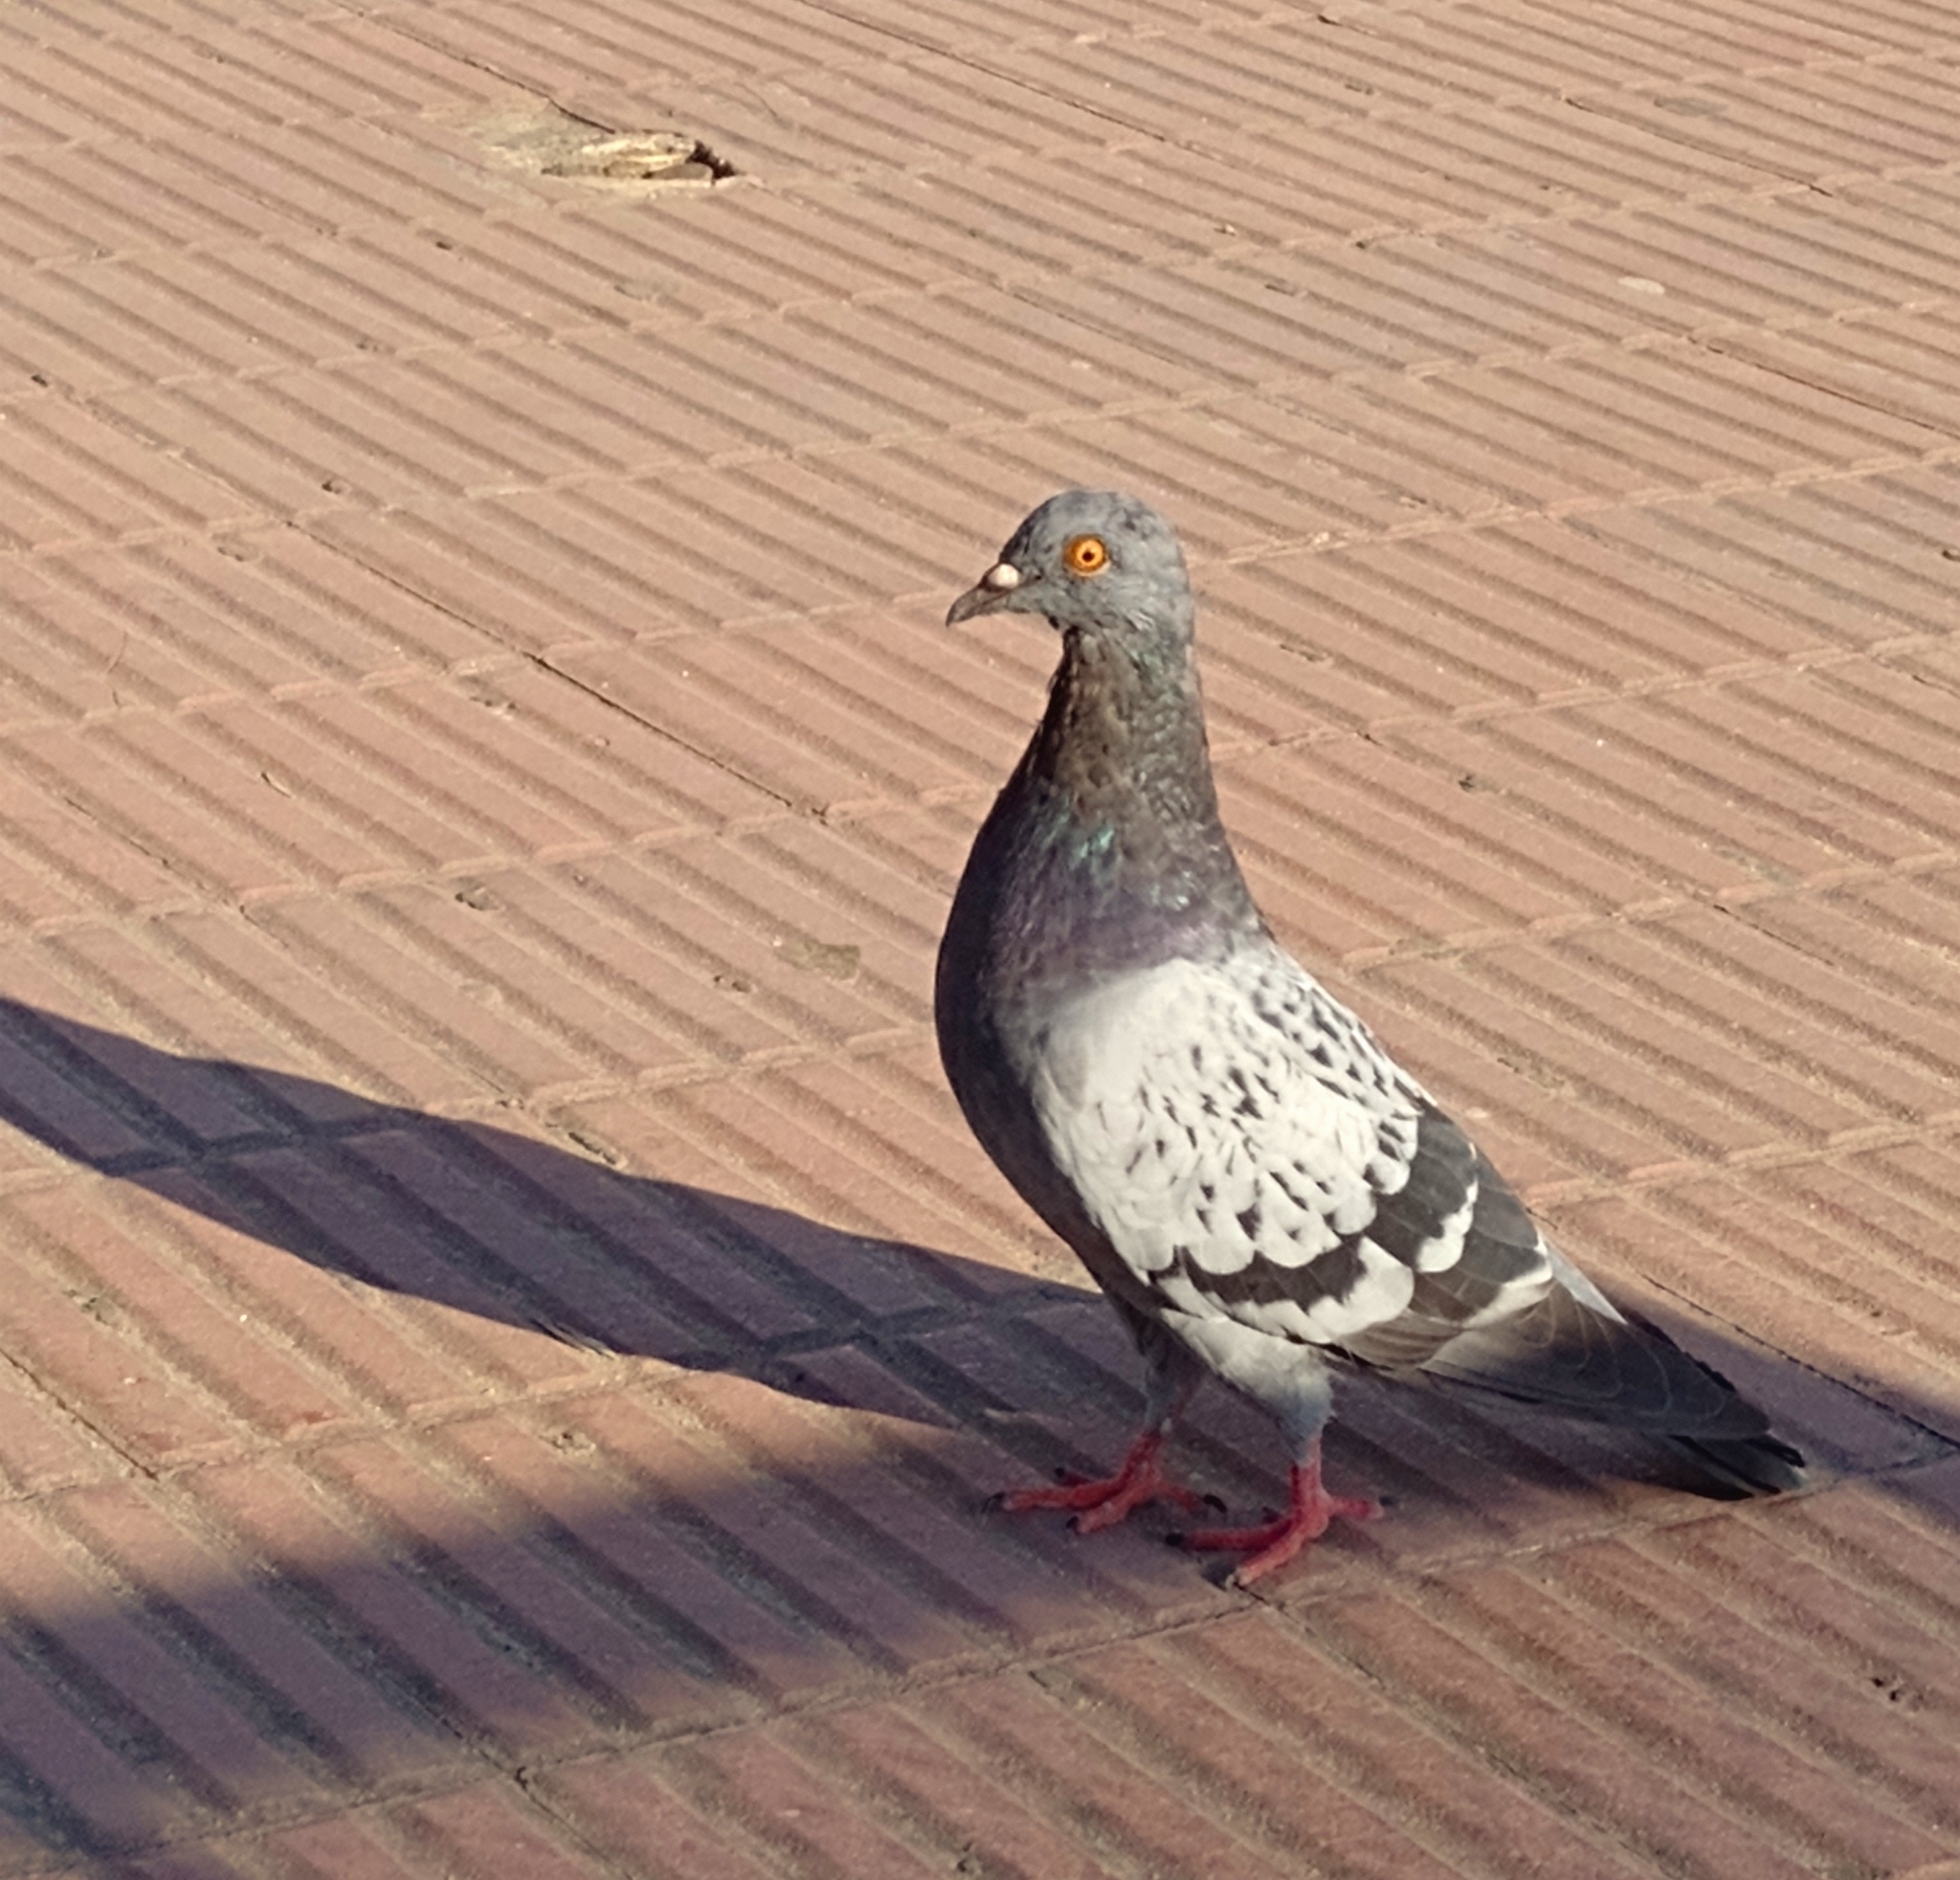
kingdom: Animalia
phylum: Chordata
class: Aves
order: Columbiformes
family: Columbidae
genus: Columba
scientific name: Columba livia
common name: Rock pigeon
